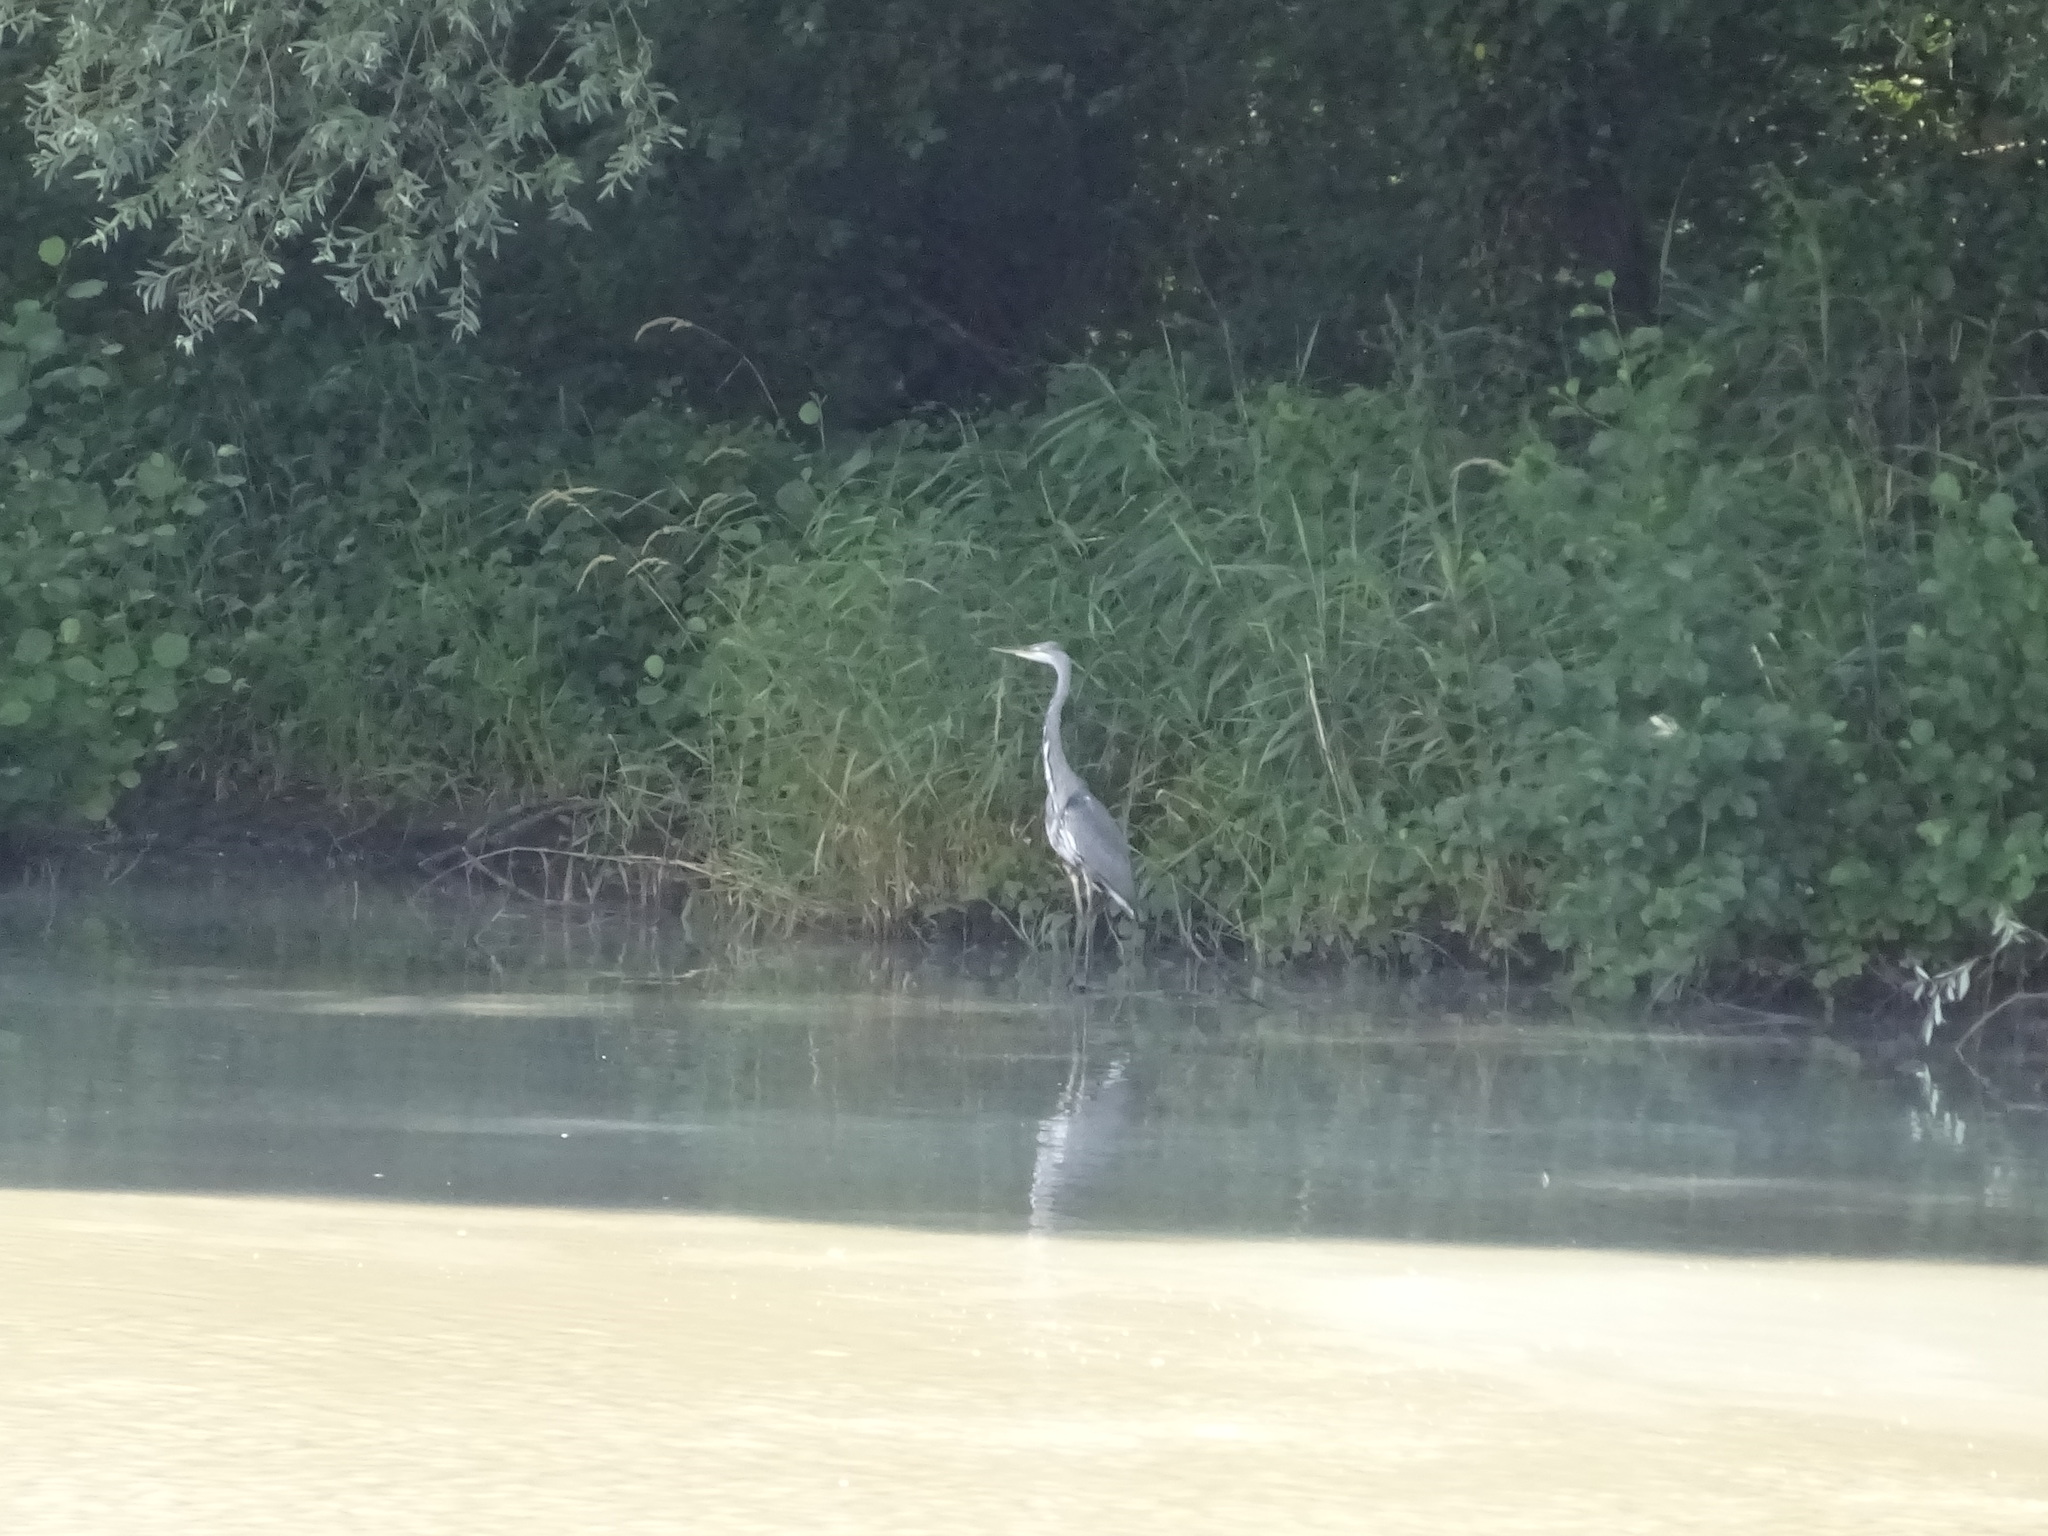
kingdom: Animalia
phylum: Chordata
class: Aves
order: Pelecaniformes
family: Ardeidae
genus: Ardea
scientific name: Ardea cinerea
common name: Grey heron
